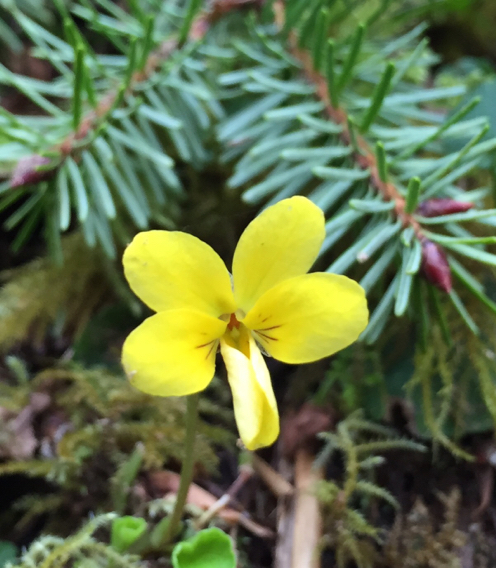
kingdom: Plantae
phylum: Tracheophyta
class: Magnoliopsida
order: Malpighiales
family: Violaceae
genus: Viola
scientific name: Viola sempervirens
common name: Evergreen violet
